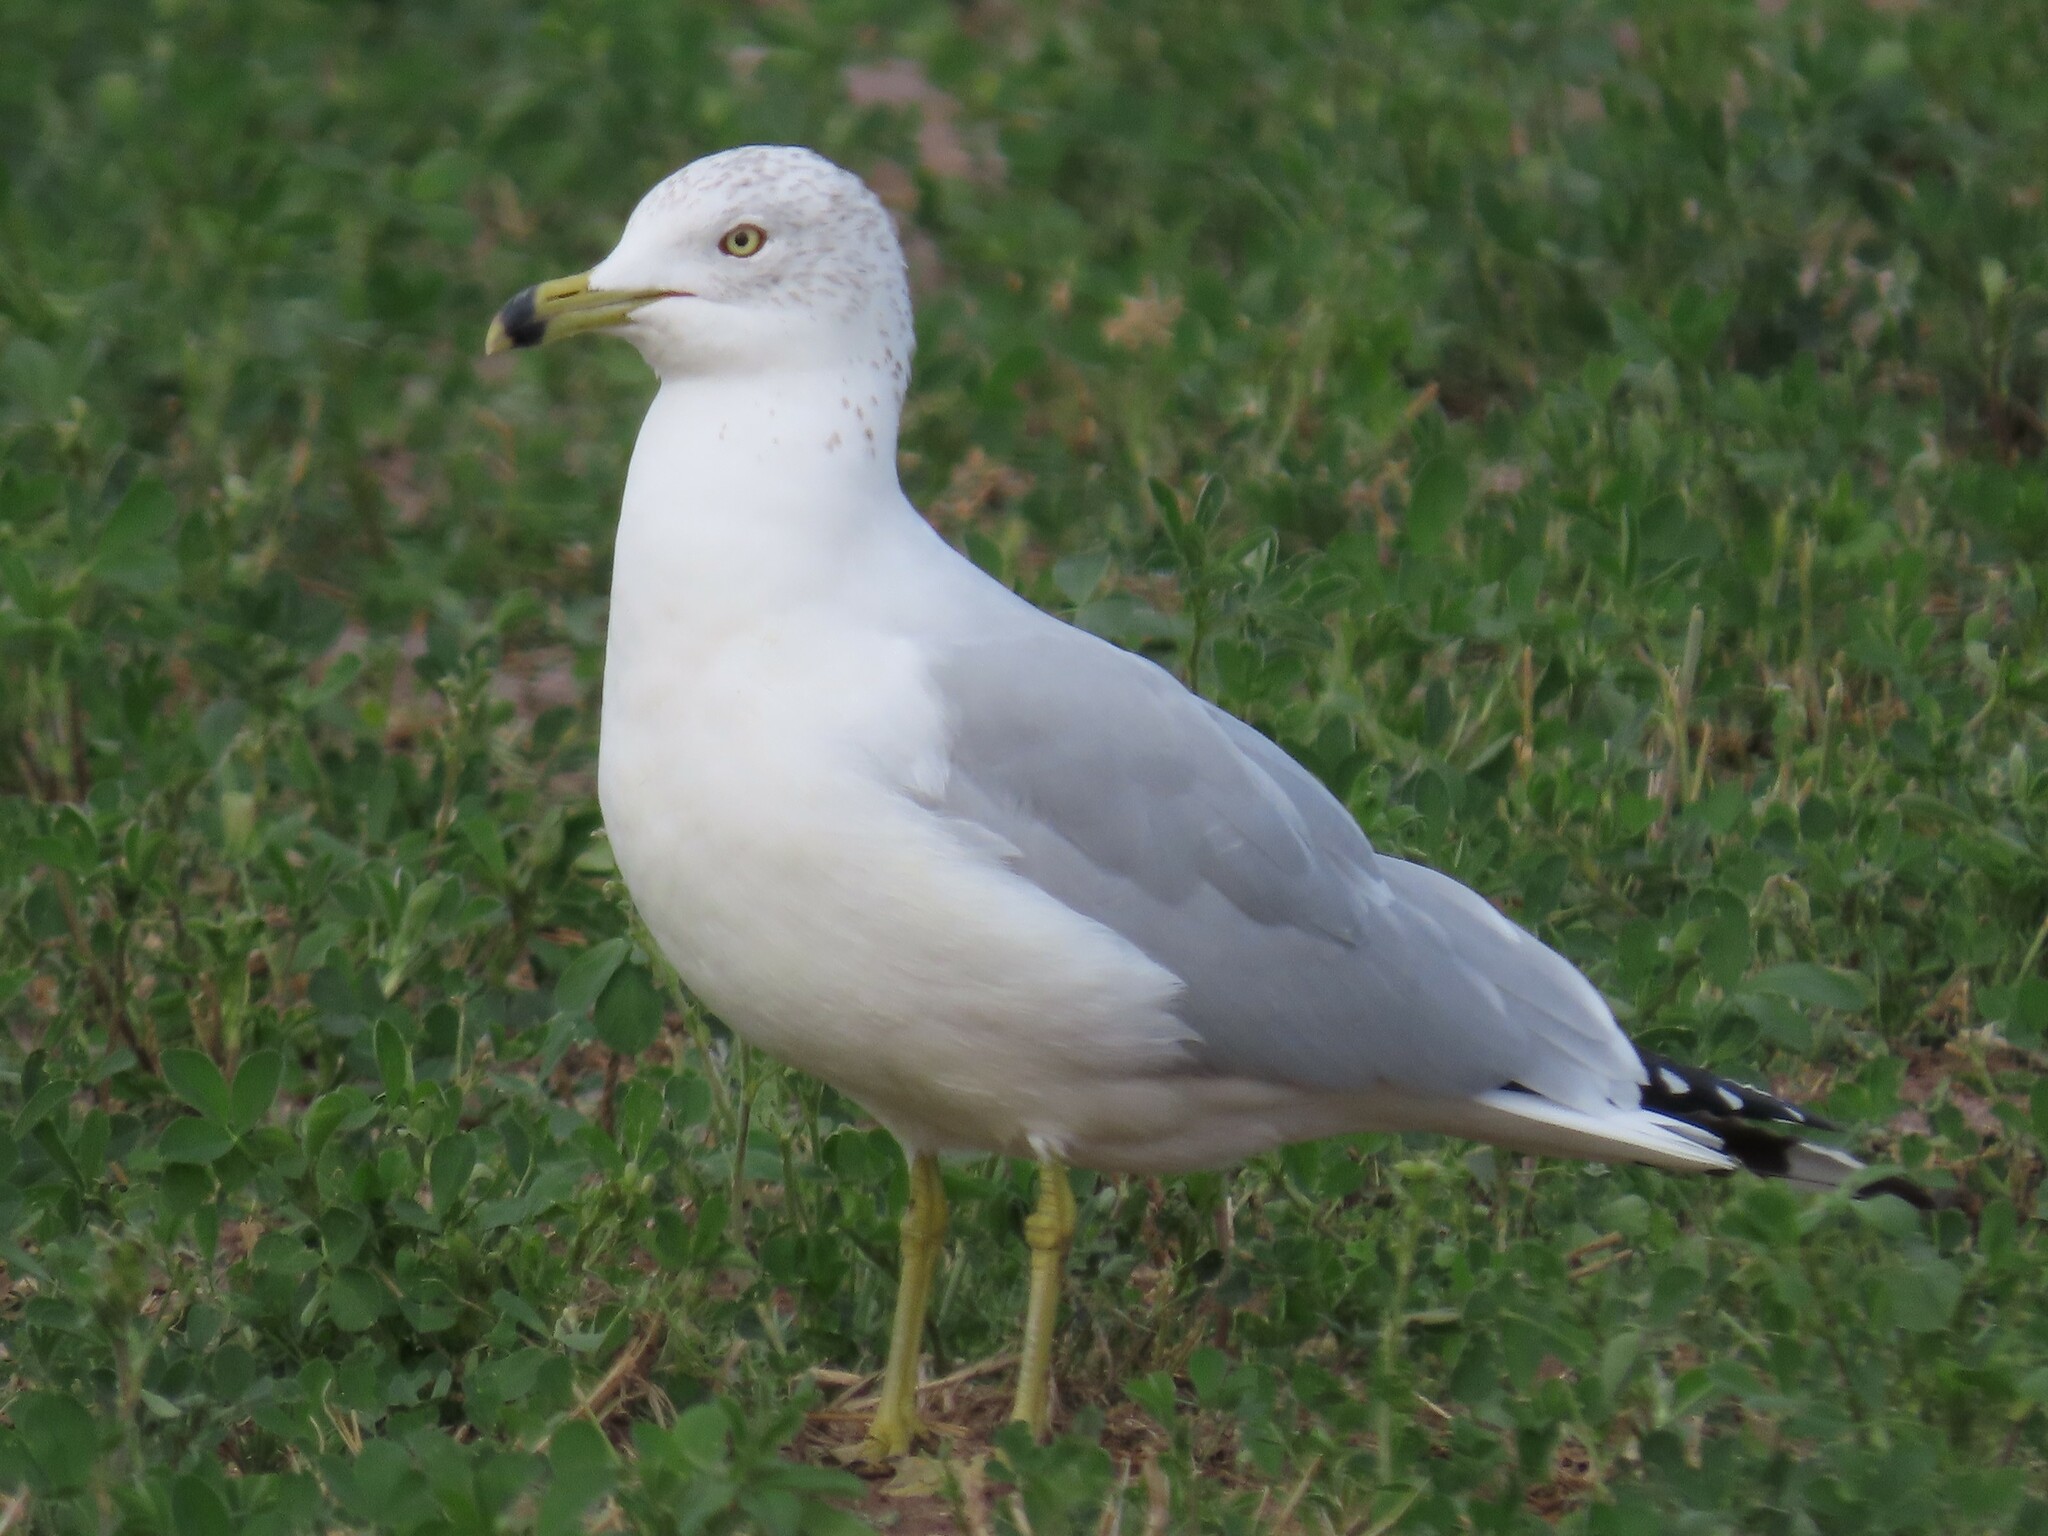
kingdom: Animalia
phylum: Chordata
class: Aves
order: Charadriiformes
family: Laridae
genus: Larus
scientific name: Larus delawarensis
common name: Ring-billed gull
